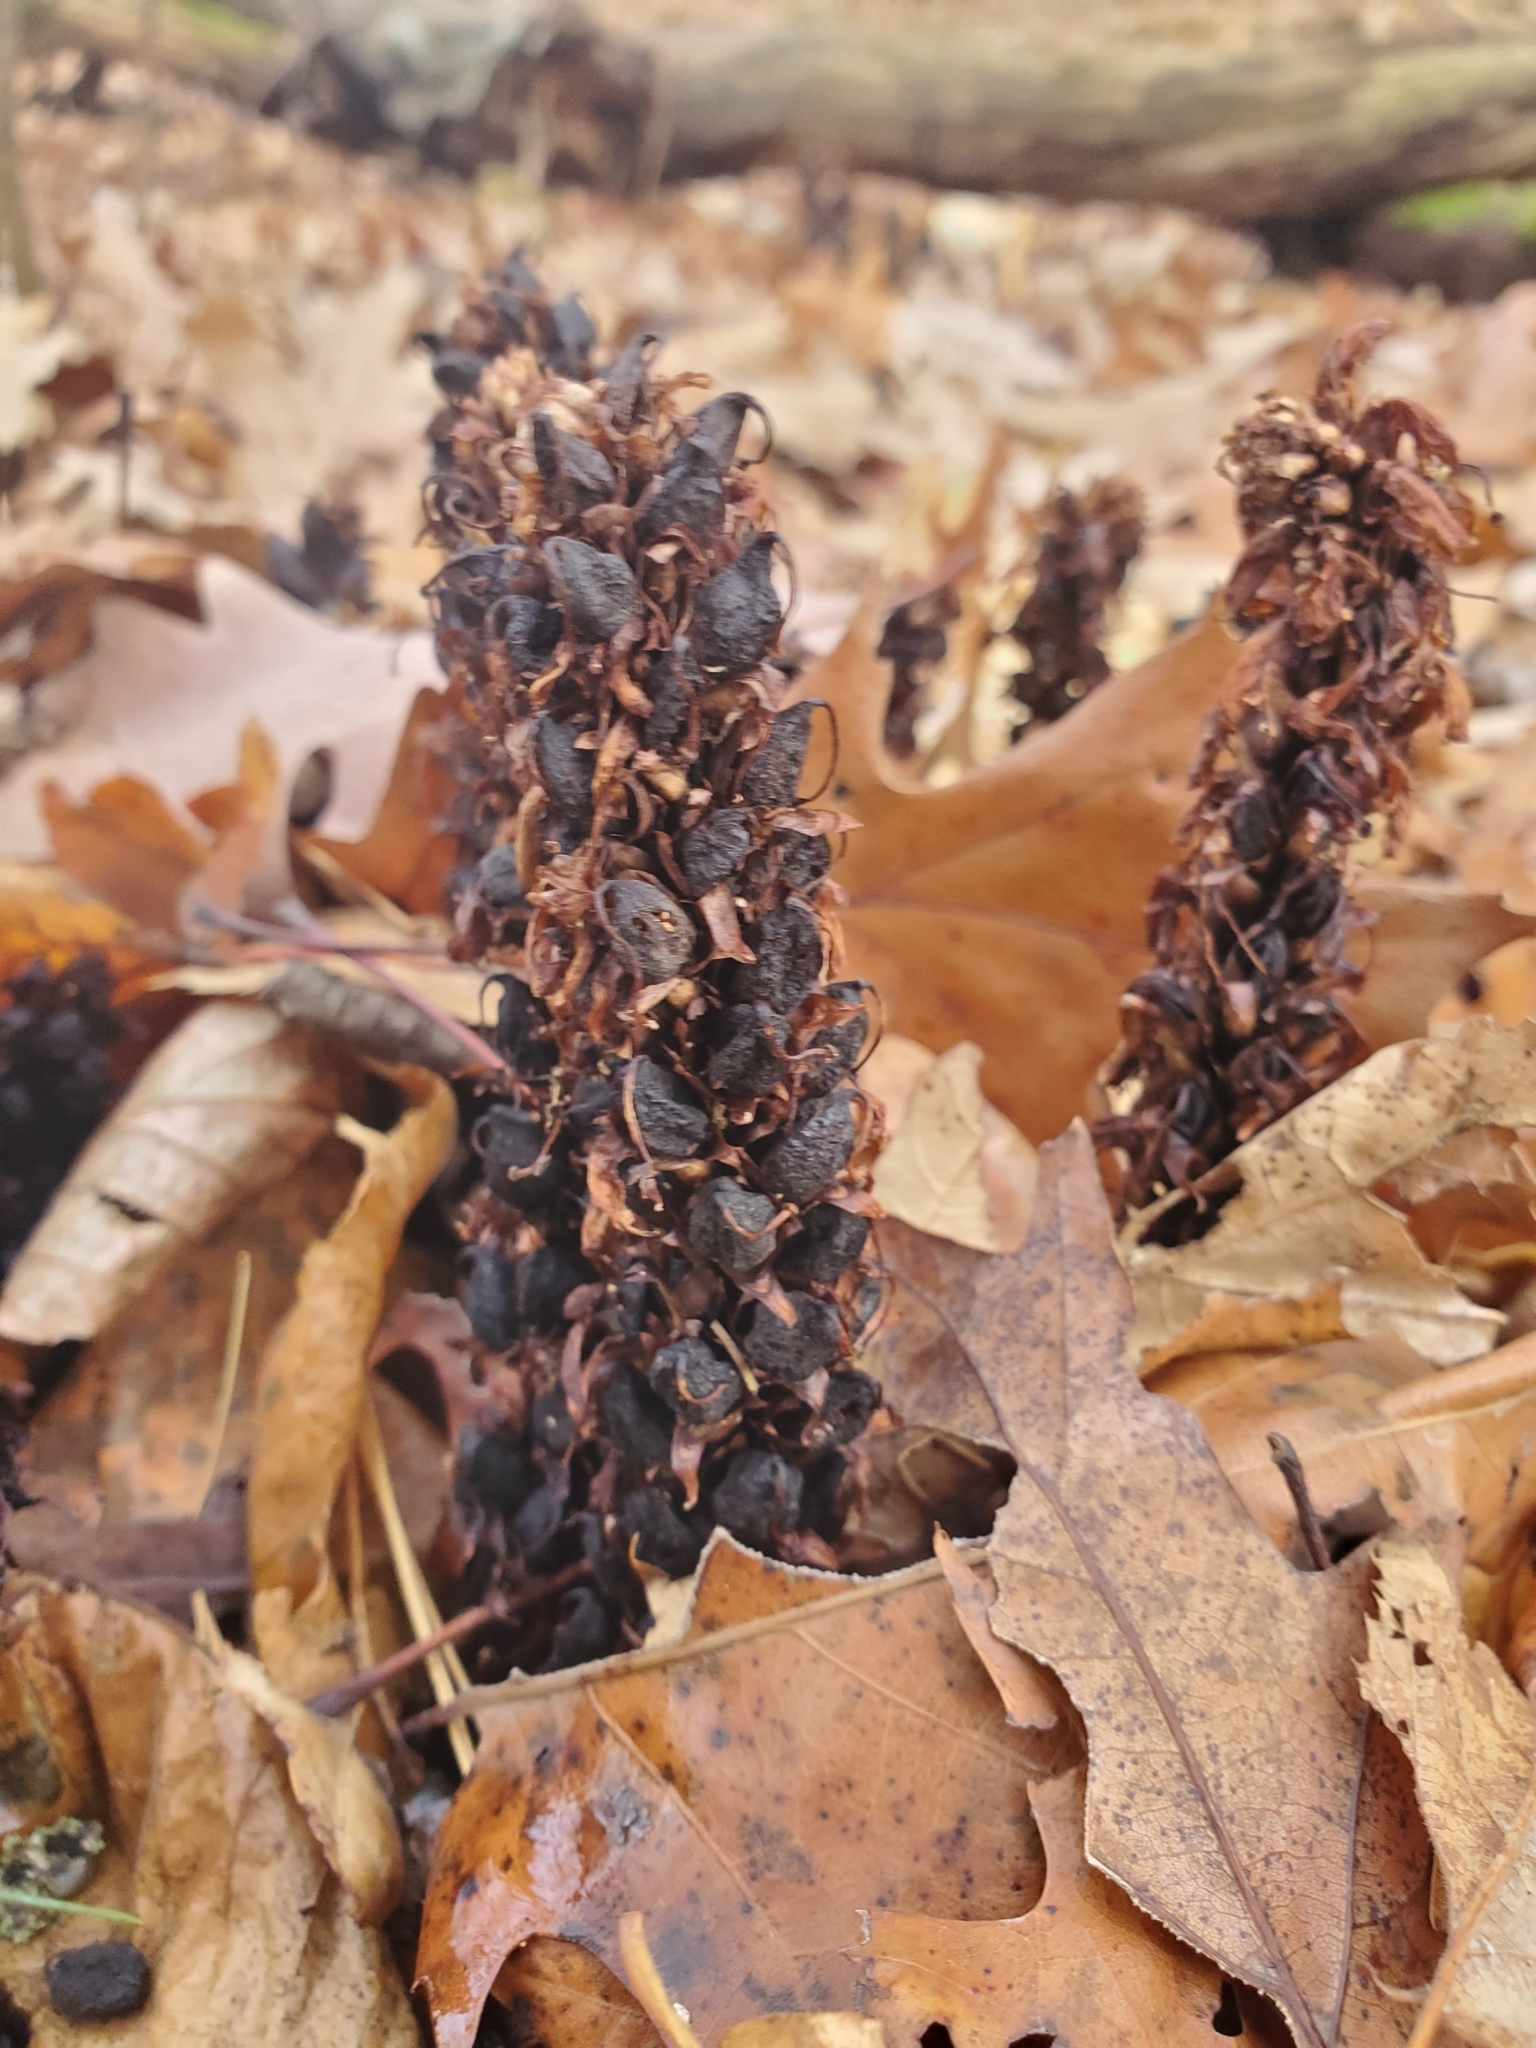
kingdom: Plantae
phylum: Tracheophyta
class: Magnoliopsida
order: Lamiales
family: Orobanchaceae
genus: Conopholis
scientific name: Conopholis americana
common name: American cancer-root
